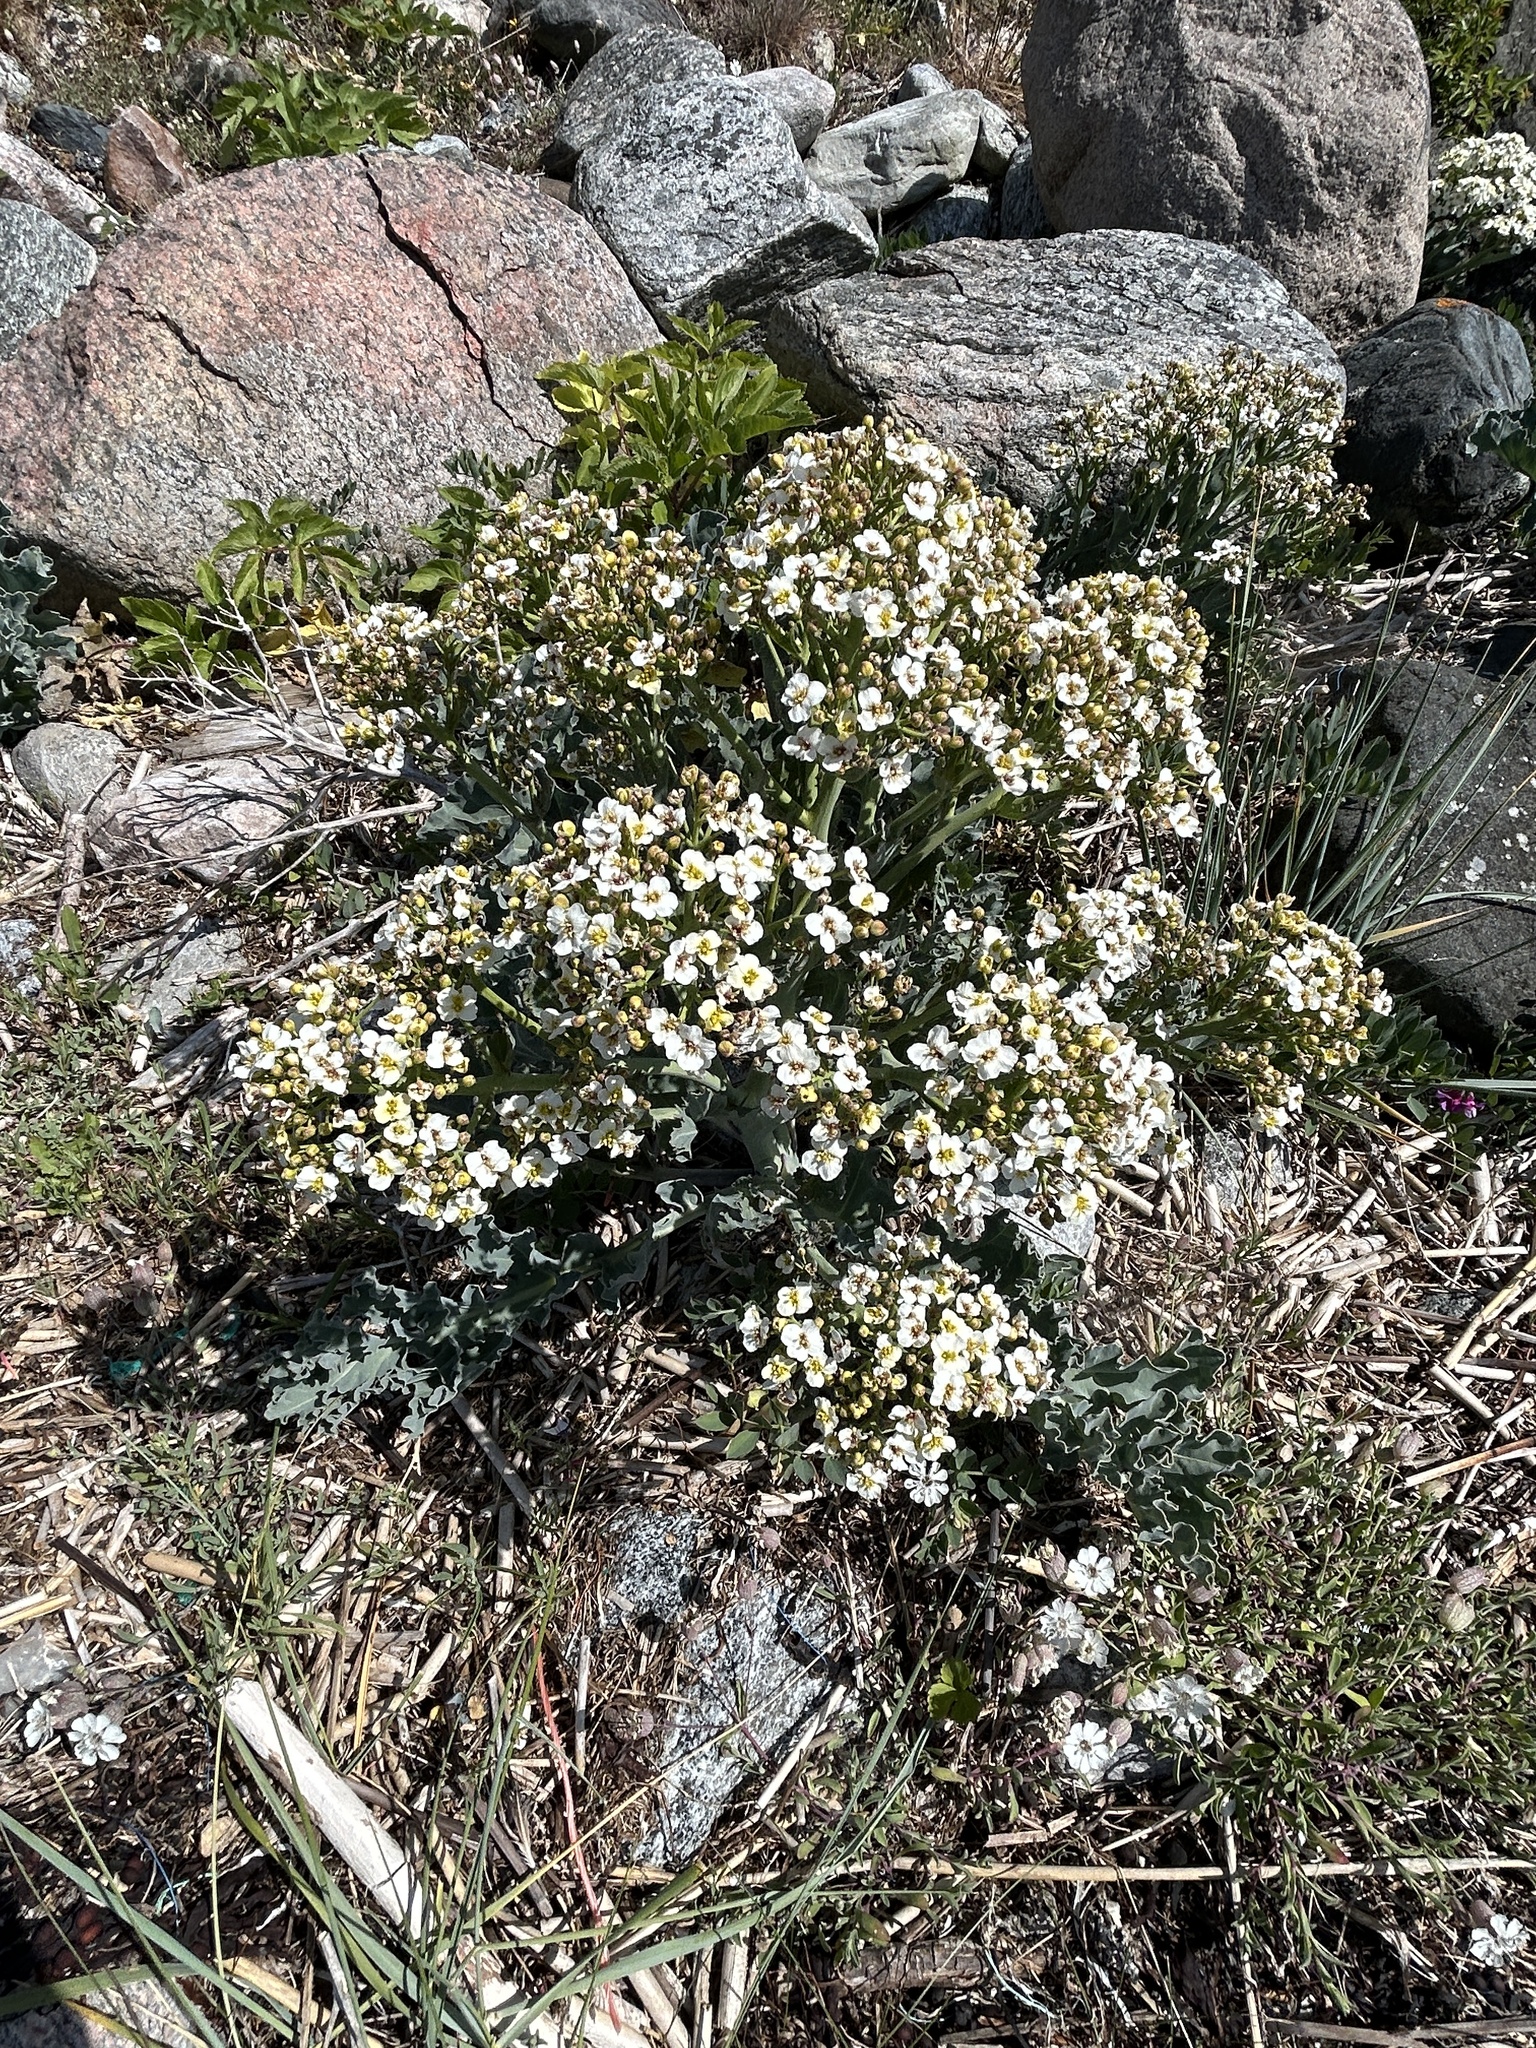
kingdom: Plantae
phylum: Tracheophyta
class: Magnoliopsida
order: Brassicales
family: Brassicaceae
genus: Crambe
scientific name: Crambe maritima
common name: Sea-kale
